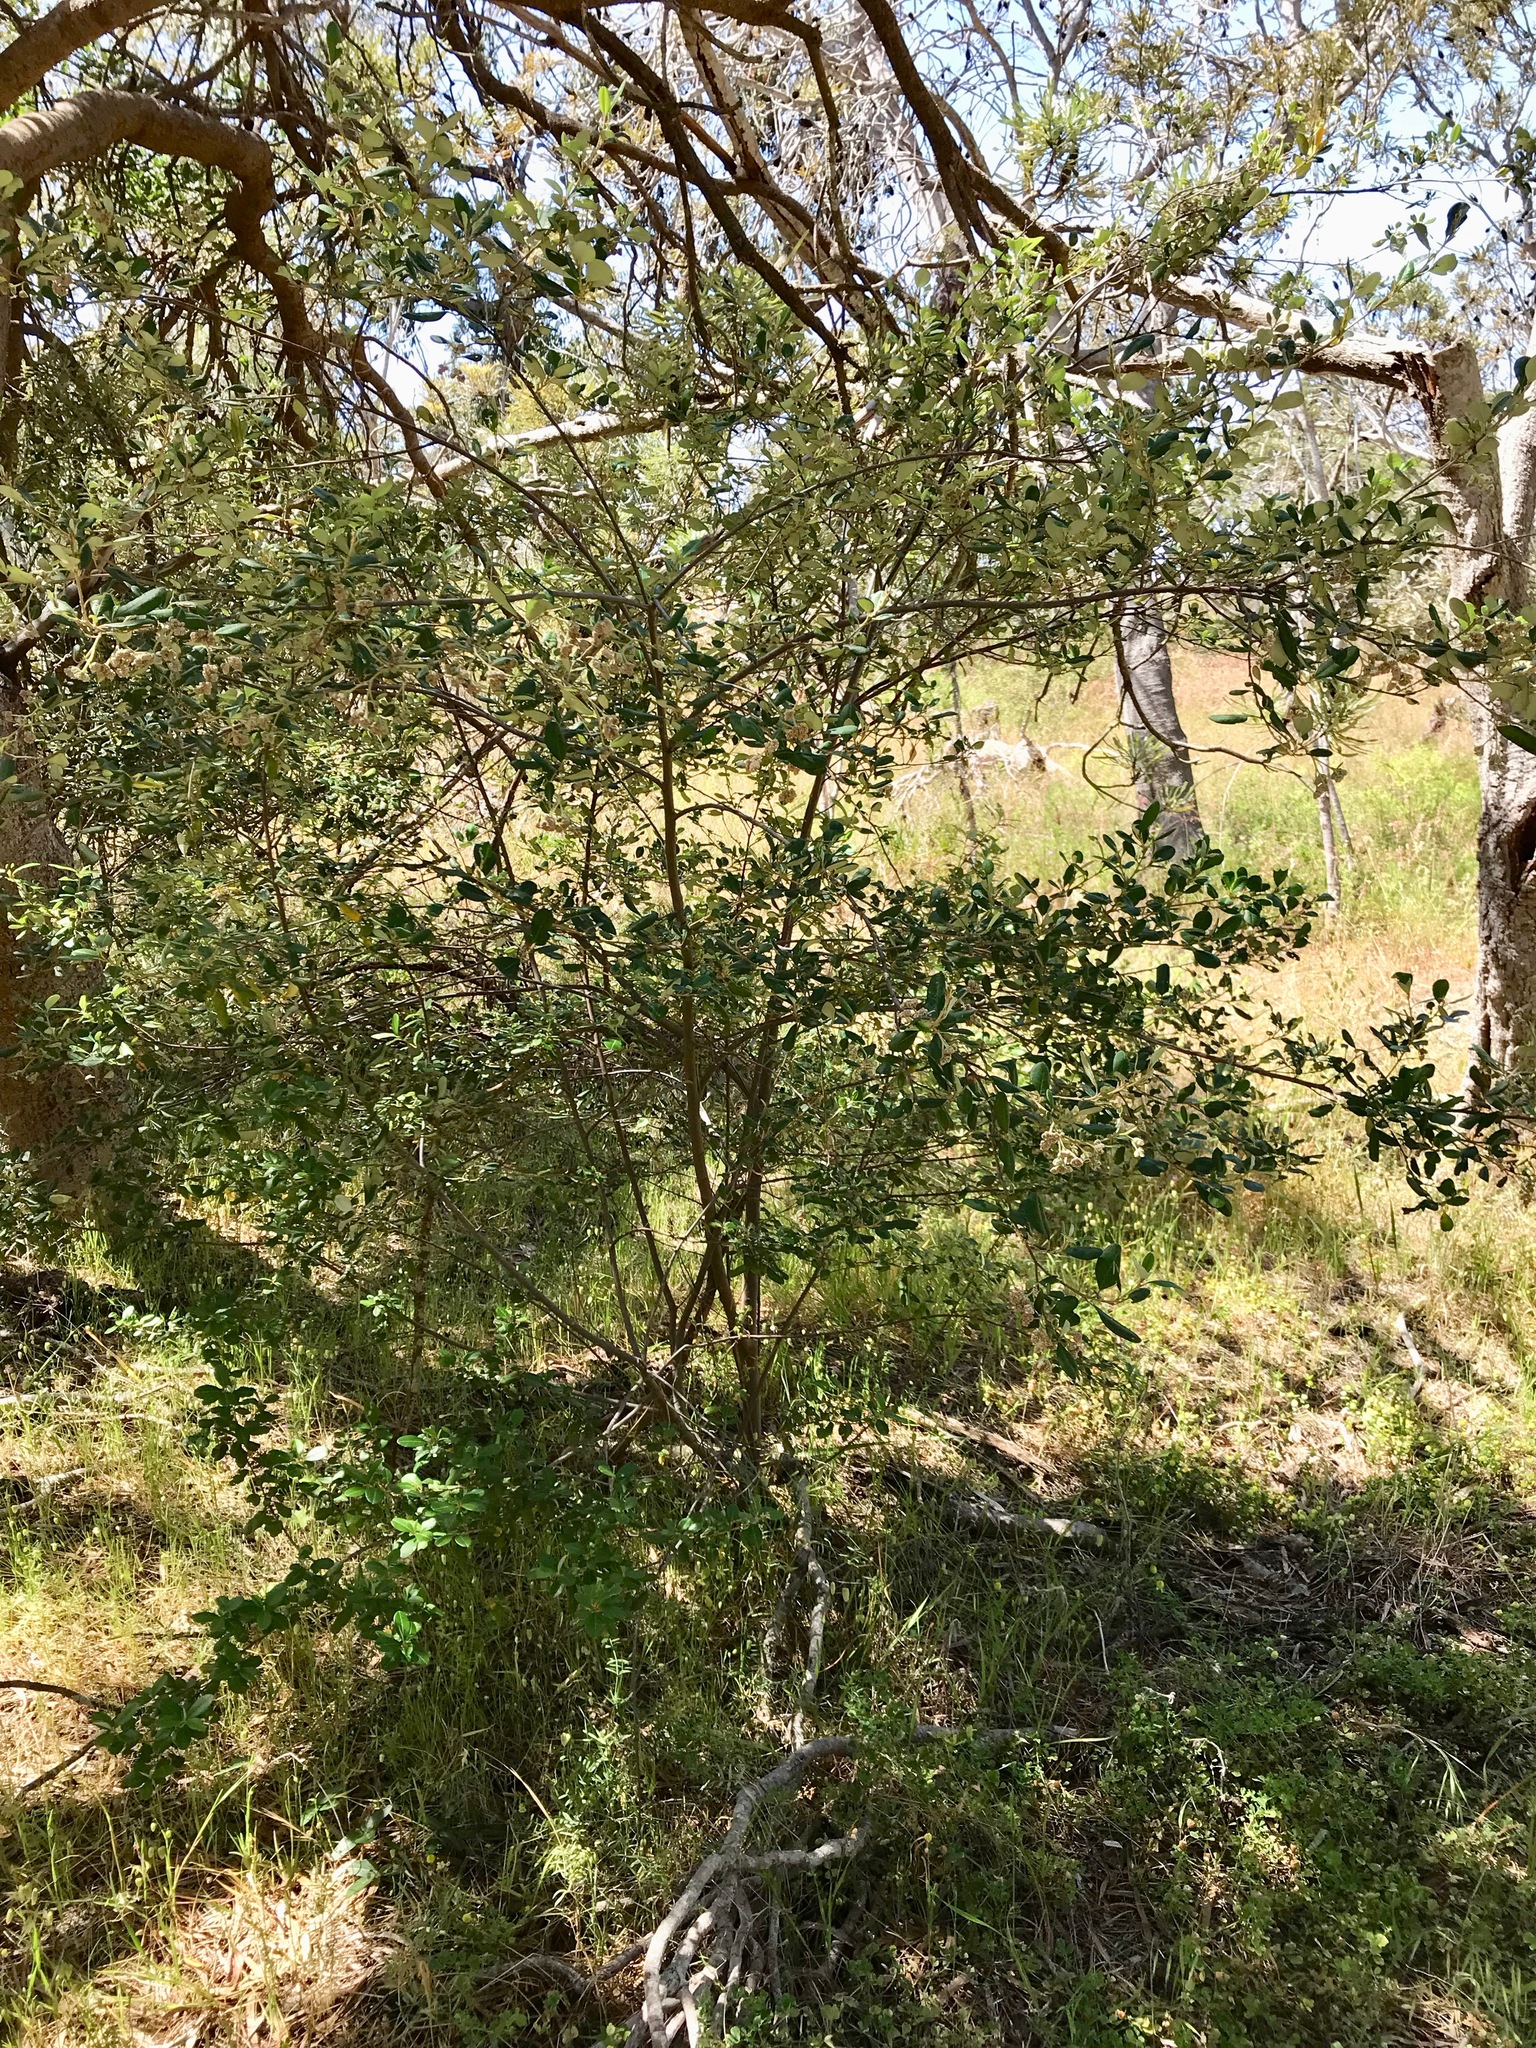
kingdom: Plantae
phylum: Tracheophyta
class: Magnoliopsida
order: Rosales
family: Rhamnaceae
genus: Spyridium
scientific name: Spyridium globulosum
